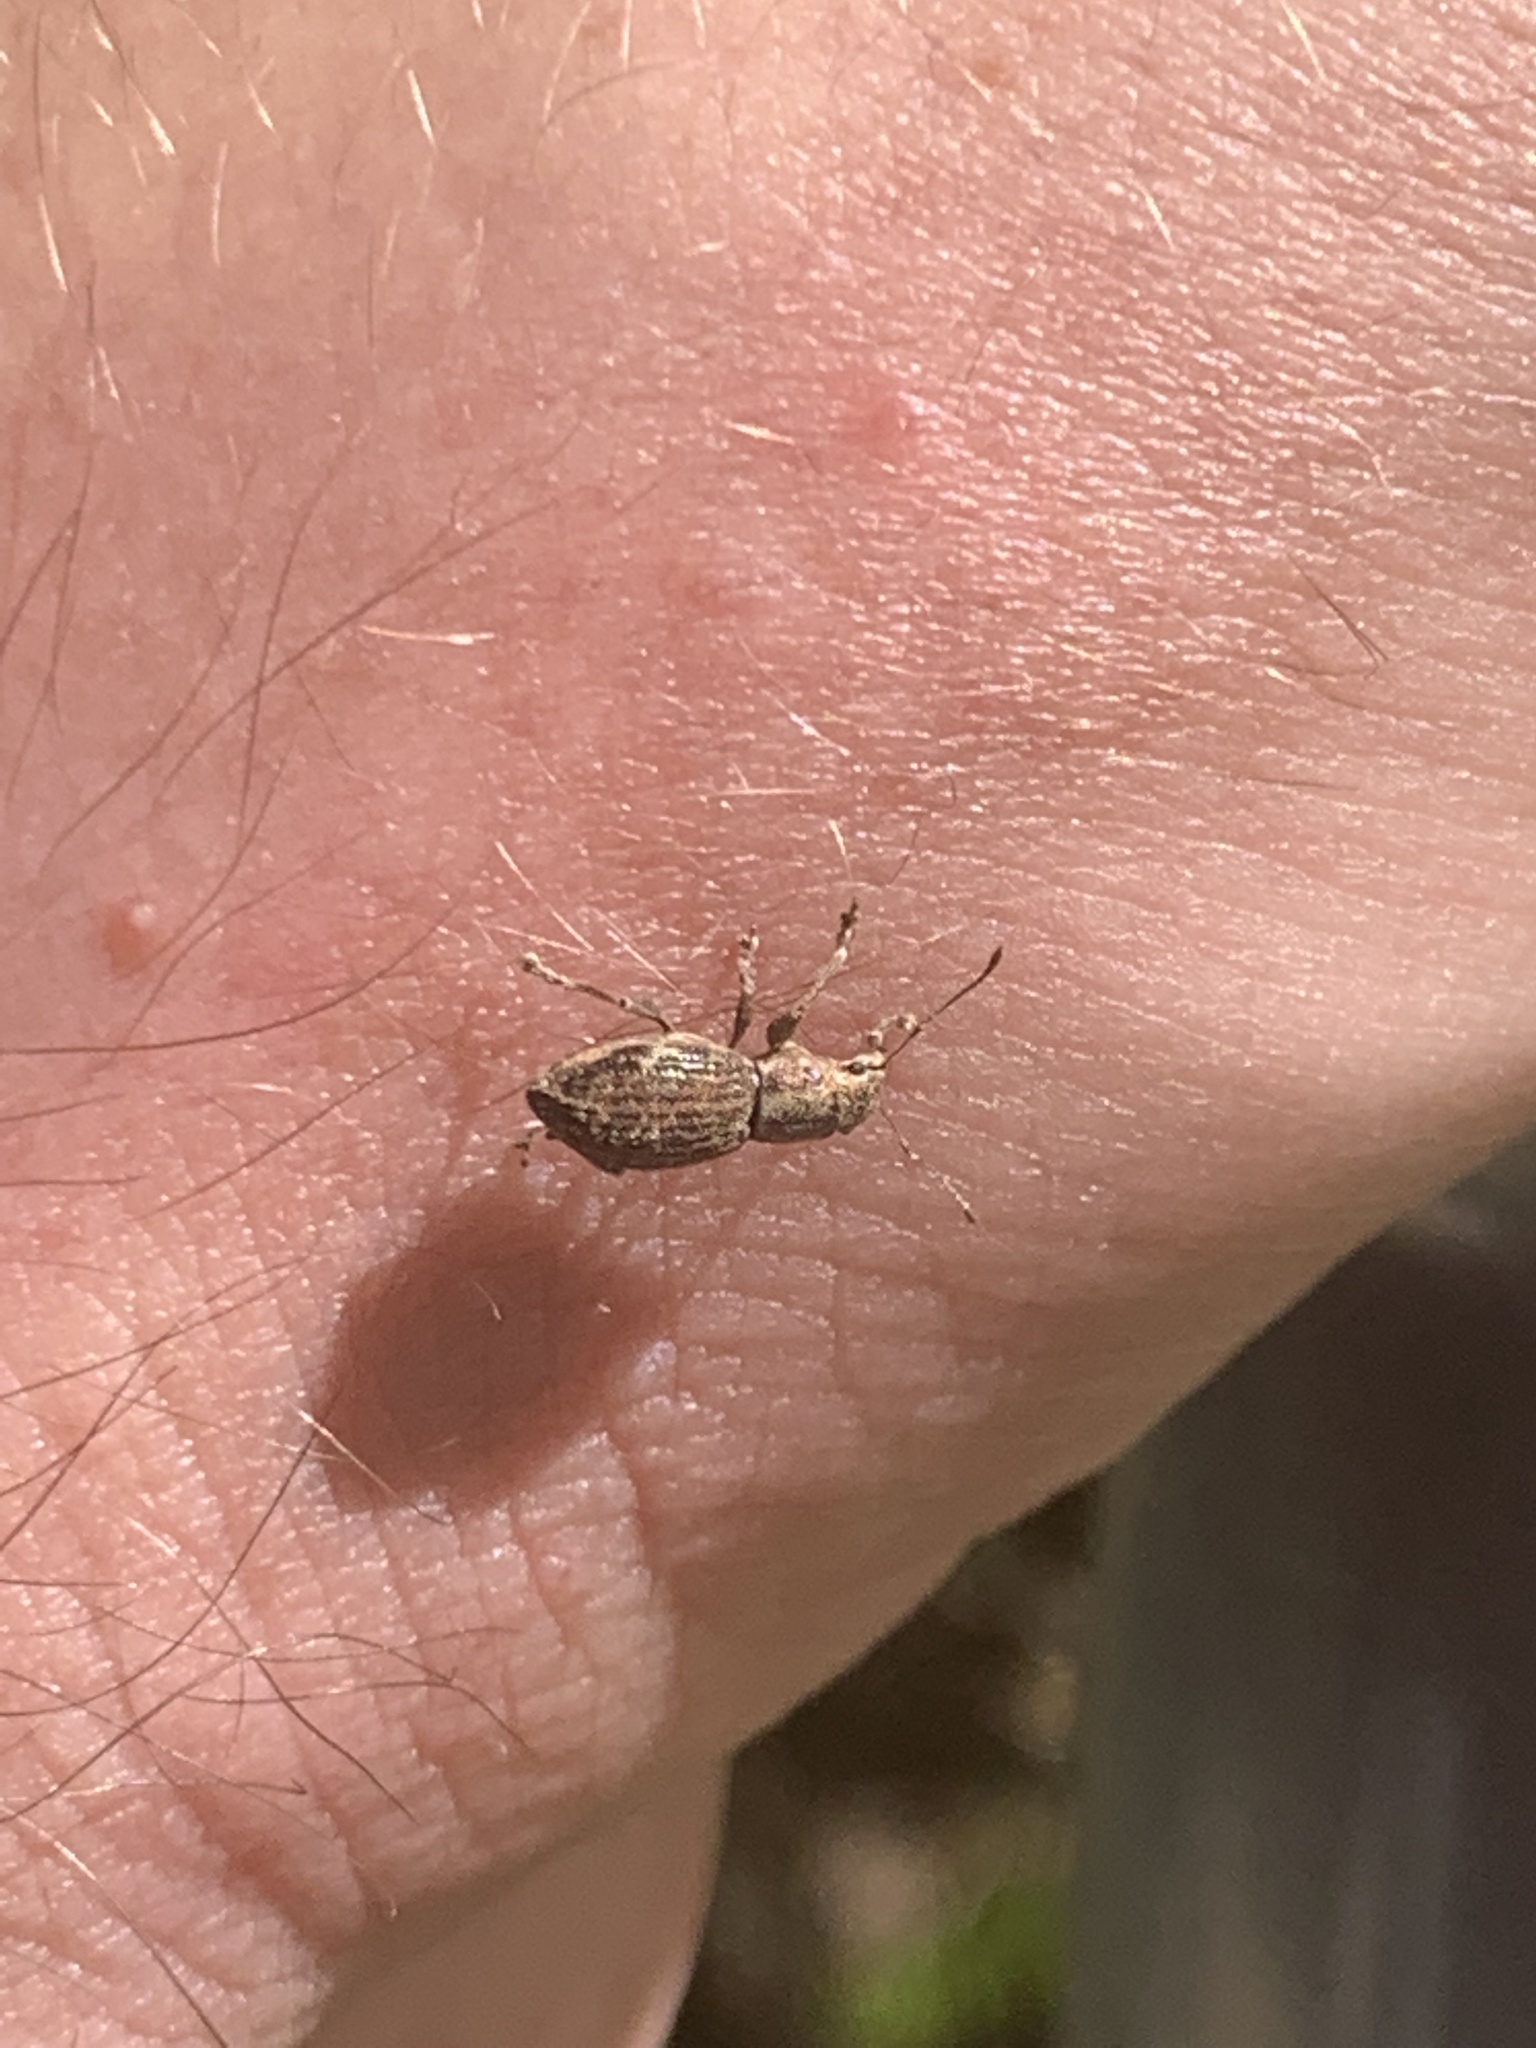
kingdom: Animalia
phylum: Arthropoda
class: Insecta
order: Coleoptera
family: Curculionidae
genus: Naupactus
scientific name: Naupactus cervinus
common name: Fuller rose beetle
